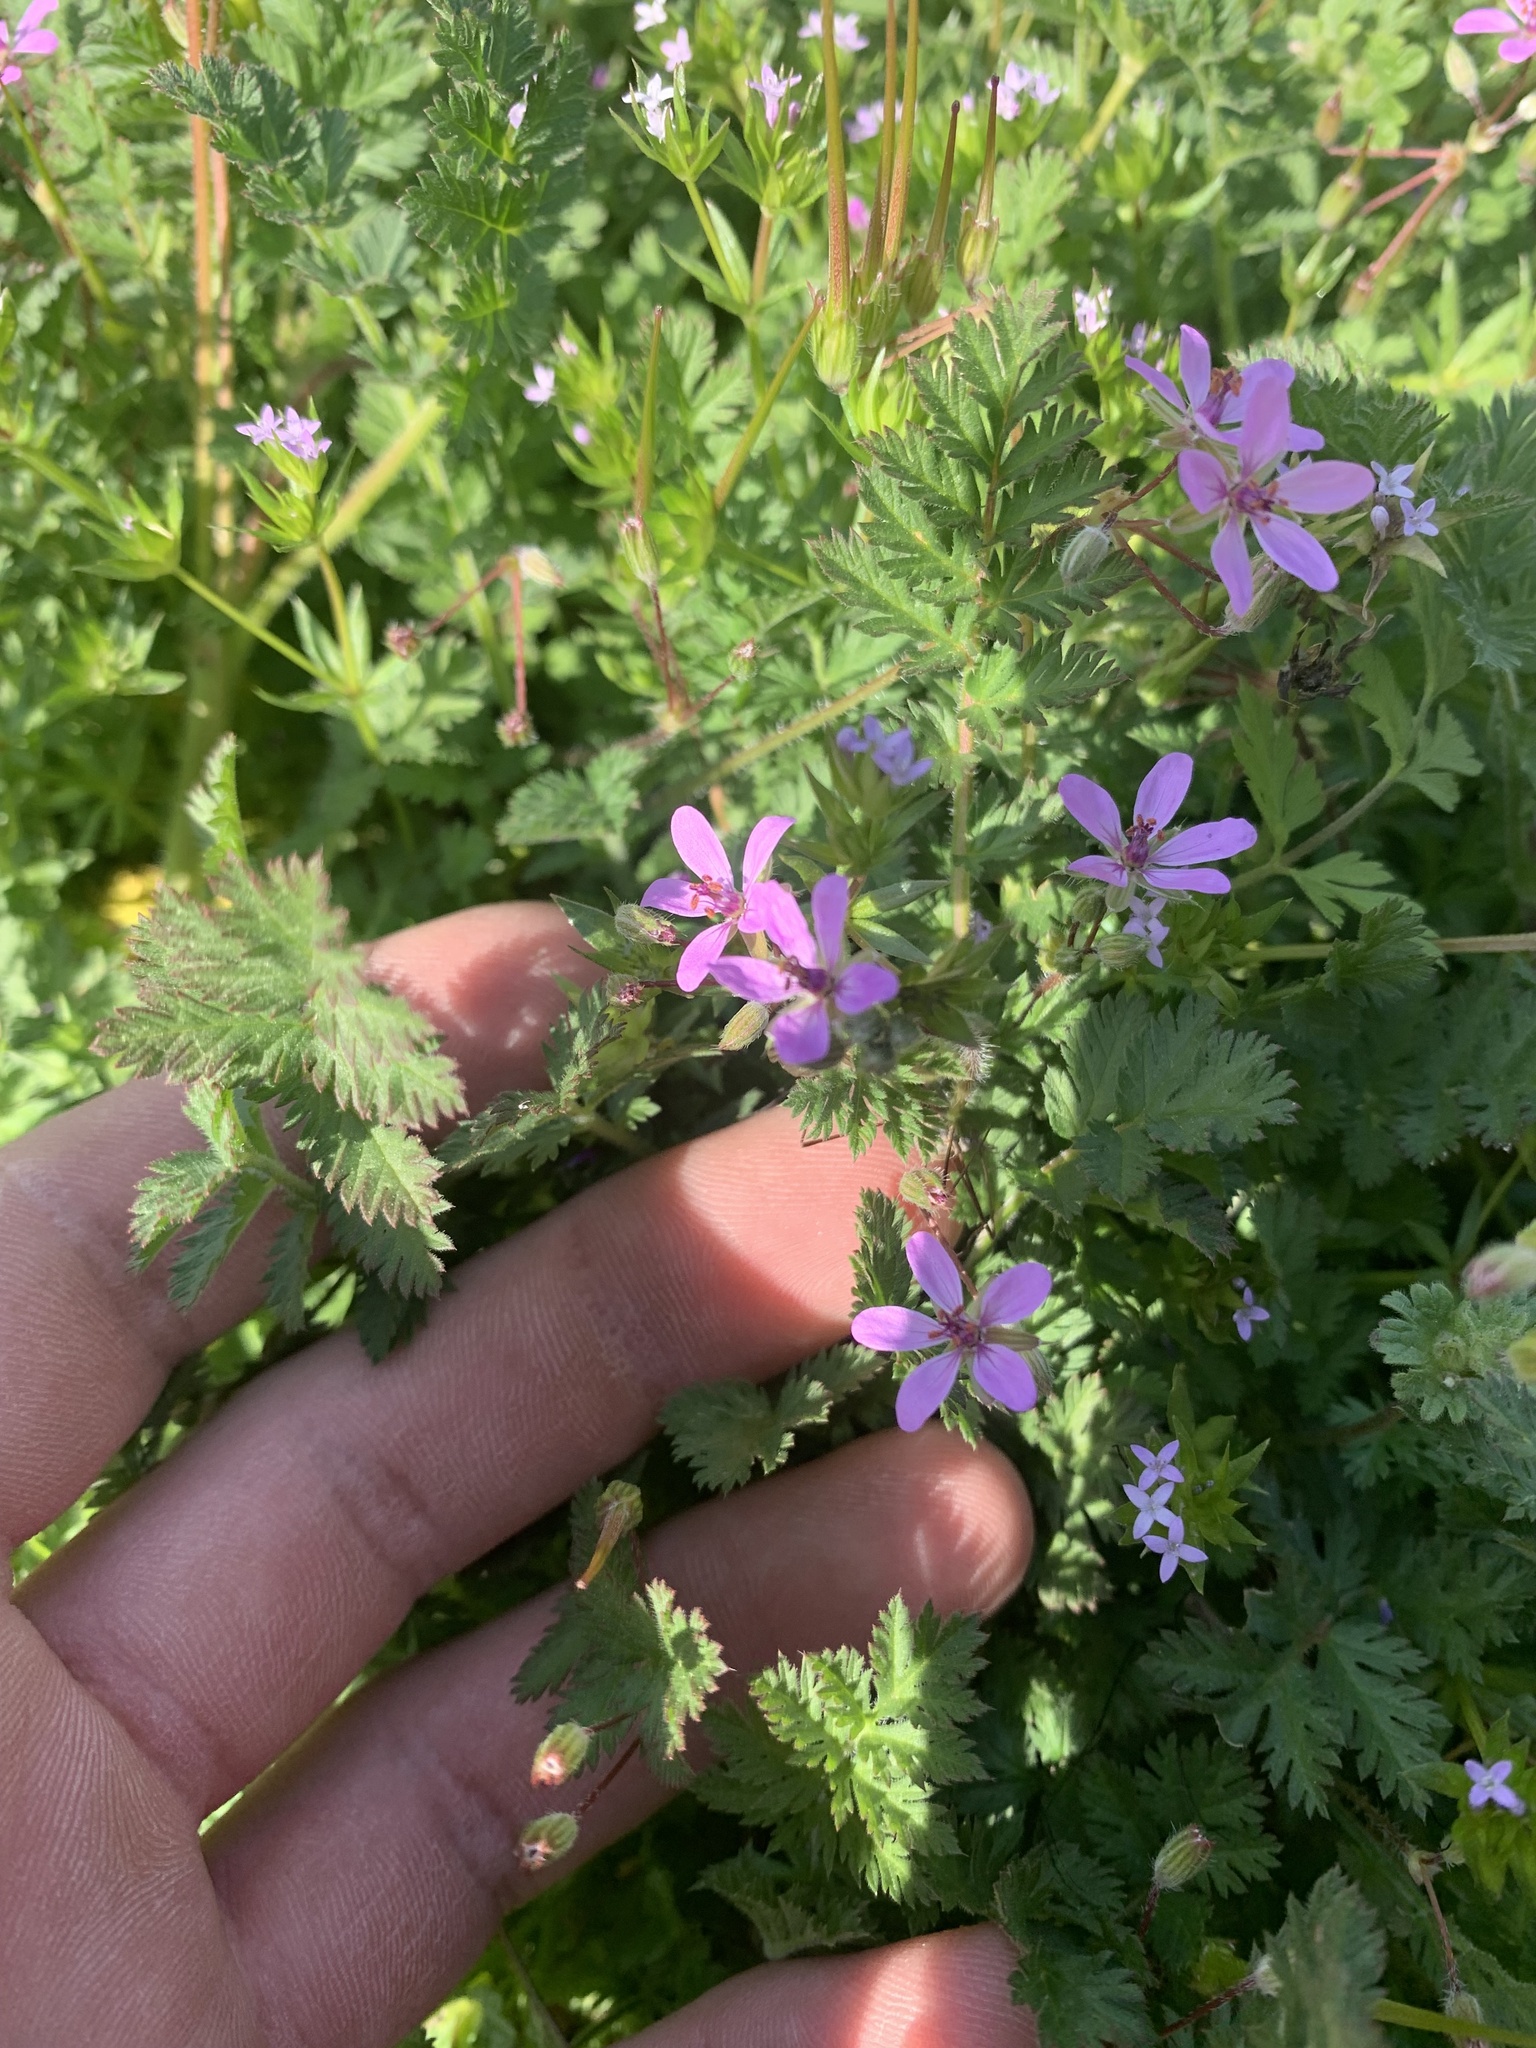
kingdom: Plantae
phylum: Tracheophyta
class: Magnoliopsida
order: Geraniales
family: Geraniaceae
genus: Erodium
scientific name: Erodium cicutarium
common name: Common stork's-bill
